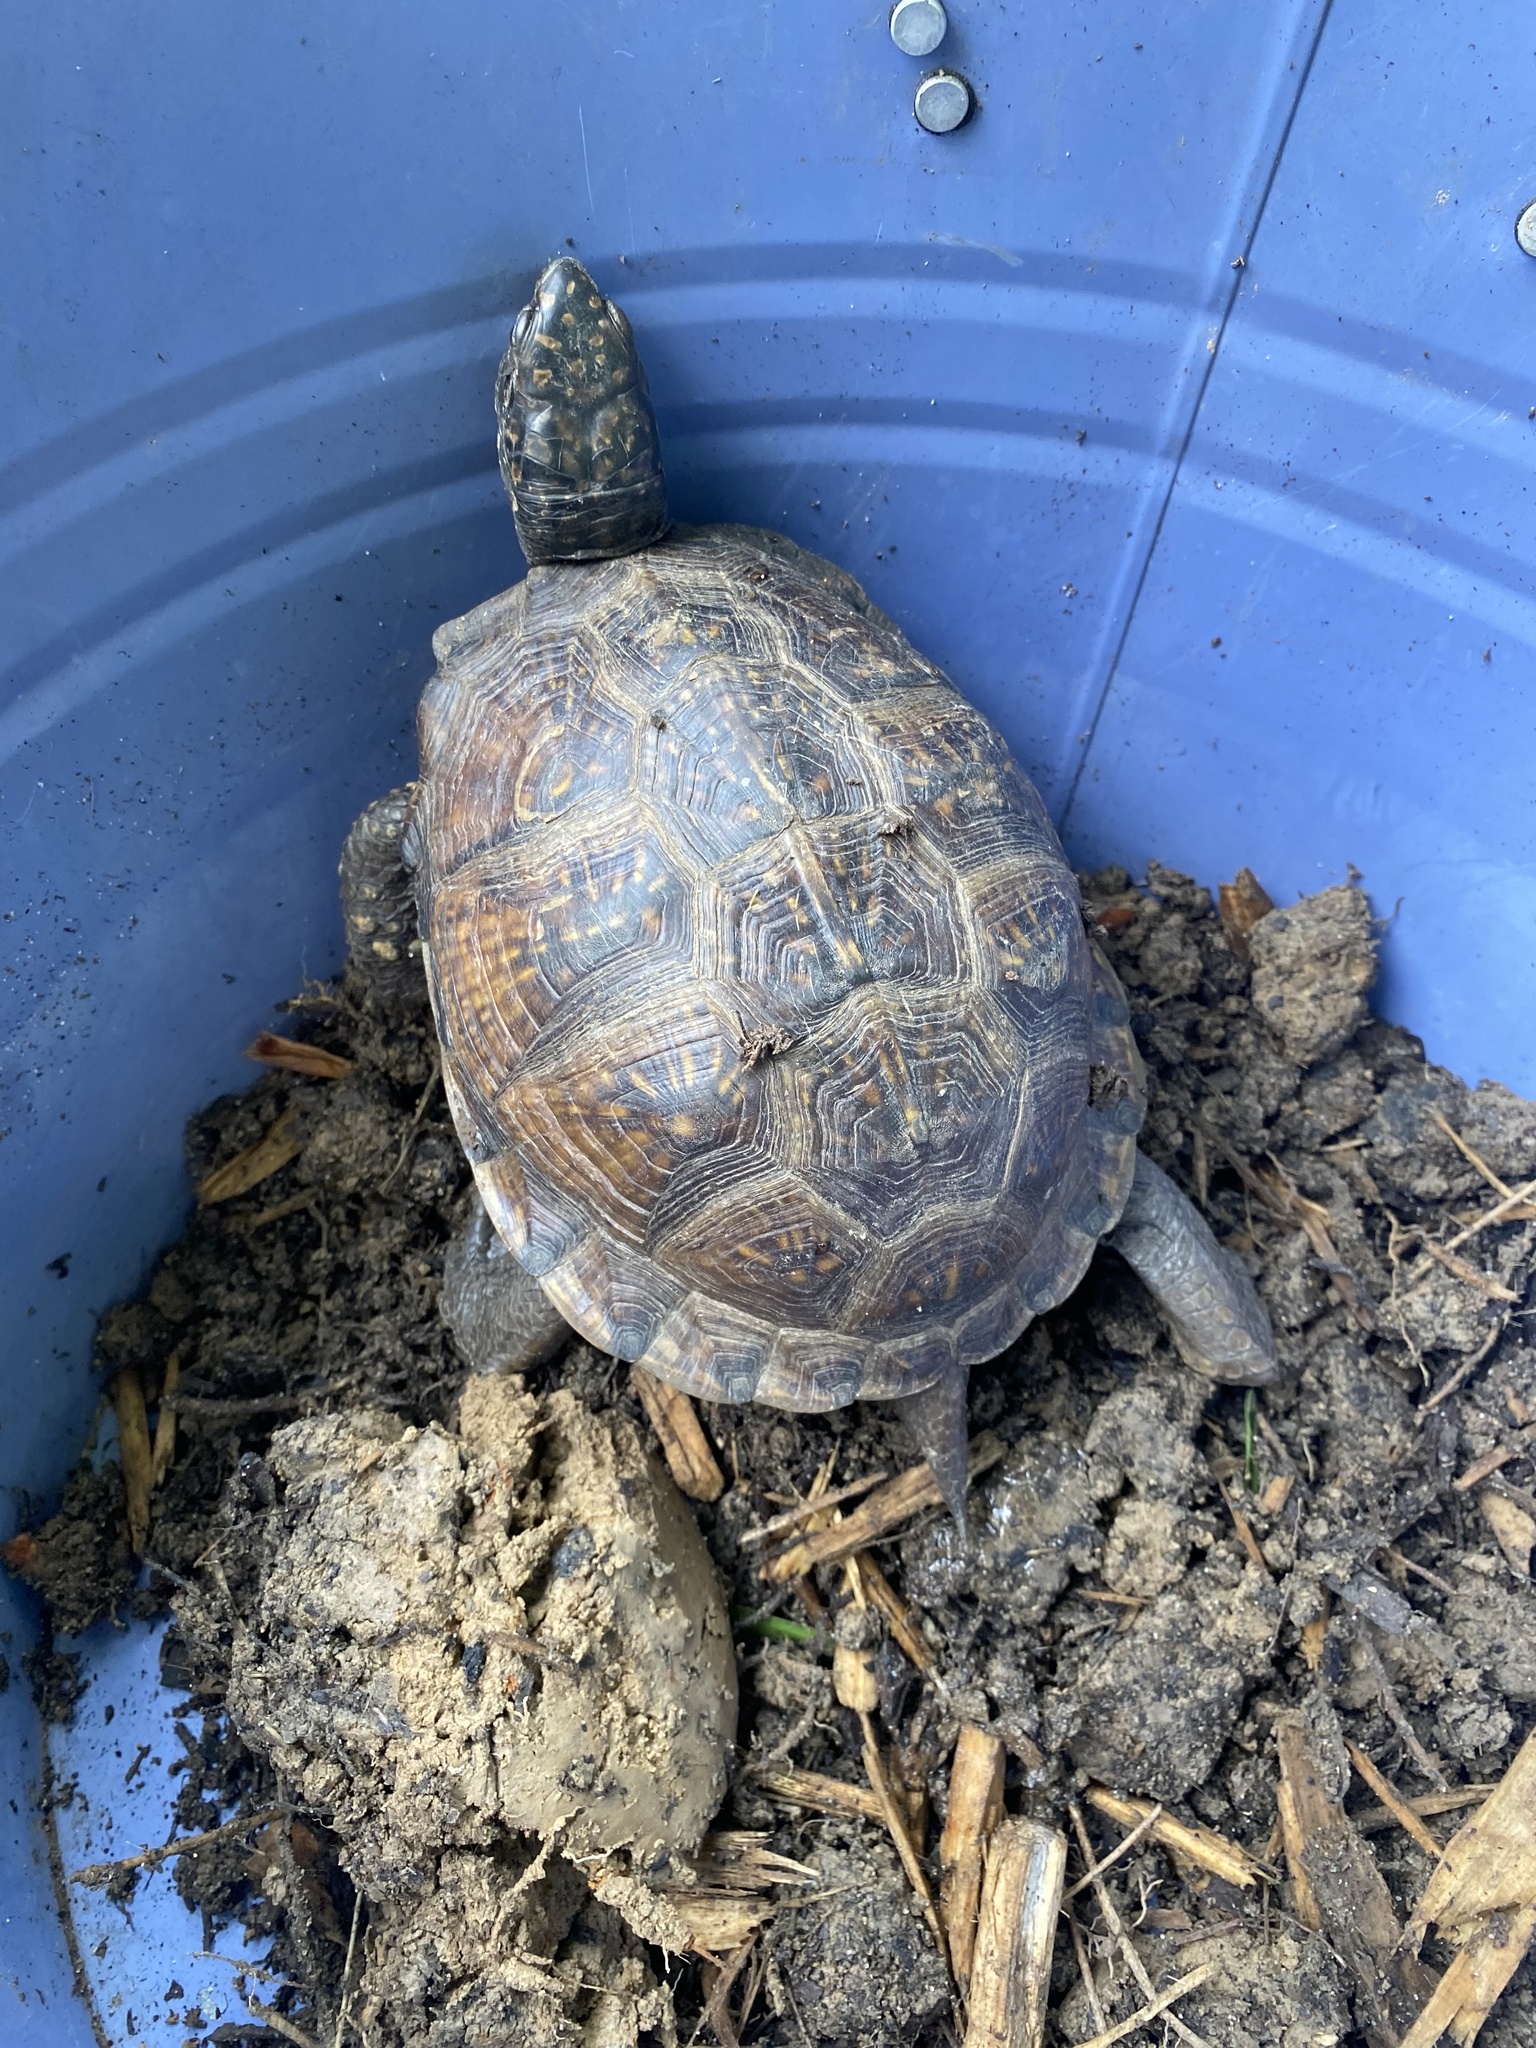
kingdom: Animalia
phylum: Chordata
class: Testudines
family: Emydidae
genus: Terrapene
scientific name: Terrapene carolina
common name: Common box turtle
